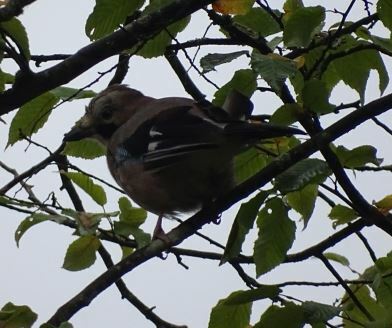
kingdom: Animalia
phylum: Chordata
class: Aves
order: Passeriformes
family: Corvidae
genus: Garrulus
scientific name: Garrulus glandarius
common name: Eurasian jay
